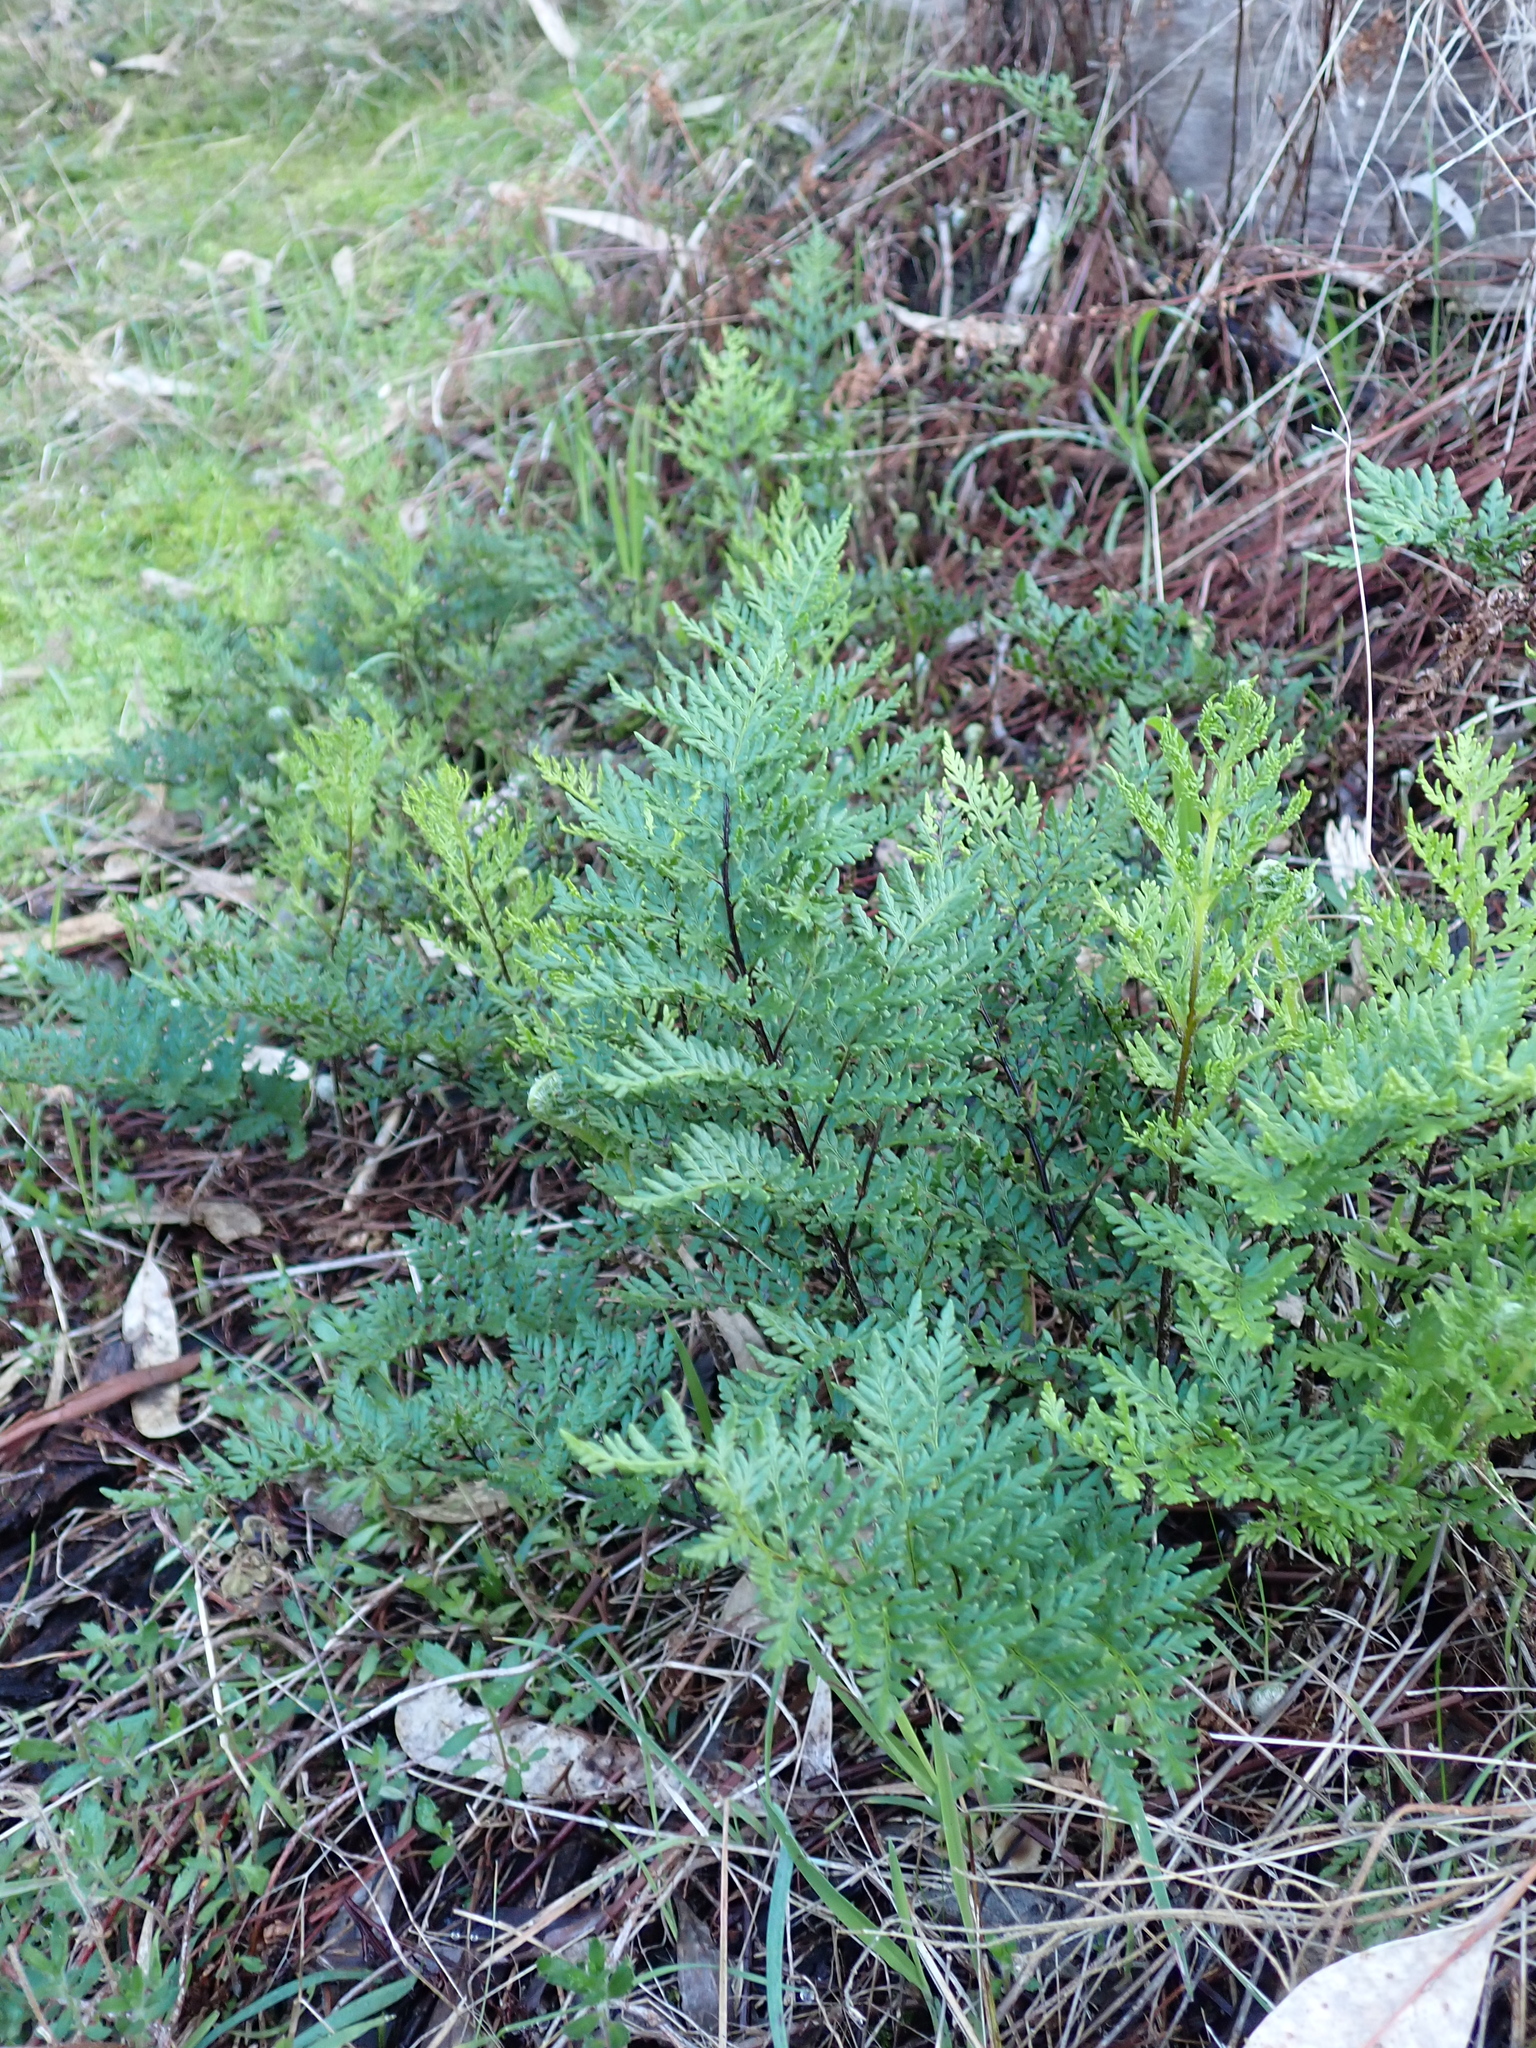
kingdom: Plantae
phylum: Tracheophyta
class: Polypodiopsida
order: Polypodiales
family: Pteridaceae
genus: Cheilanthes
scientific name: Cheilanthes austrotenuifolia
